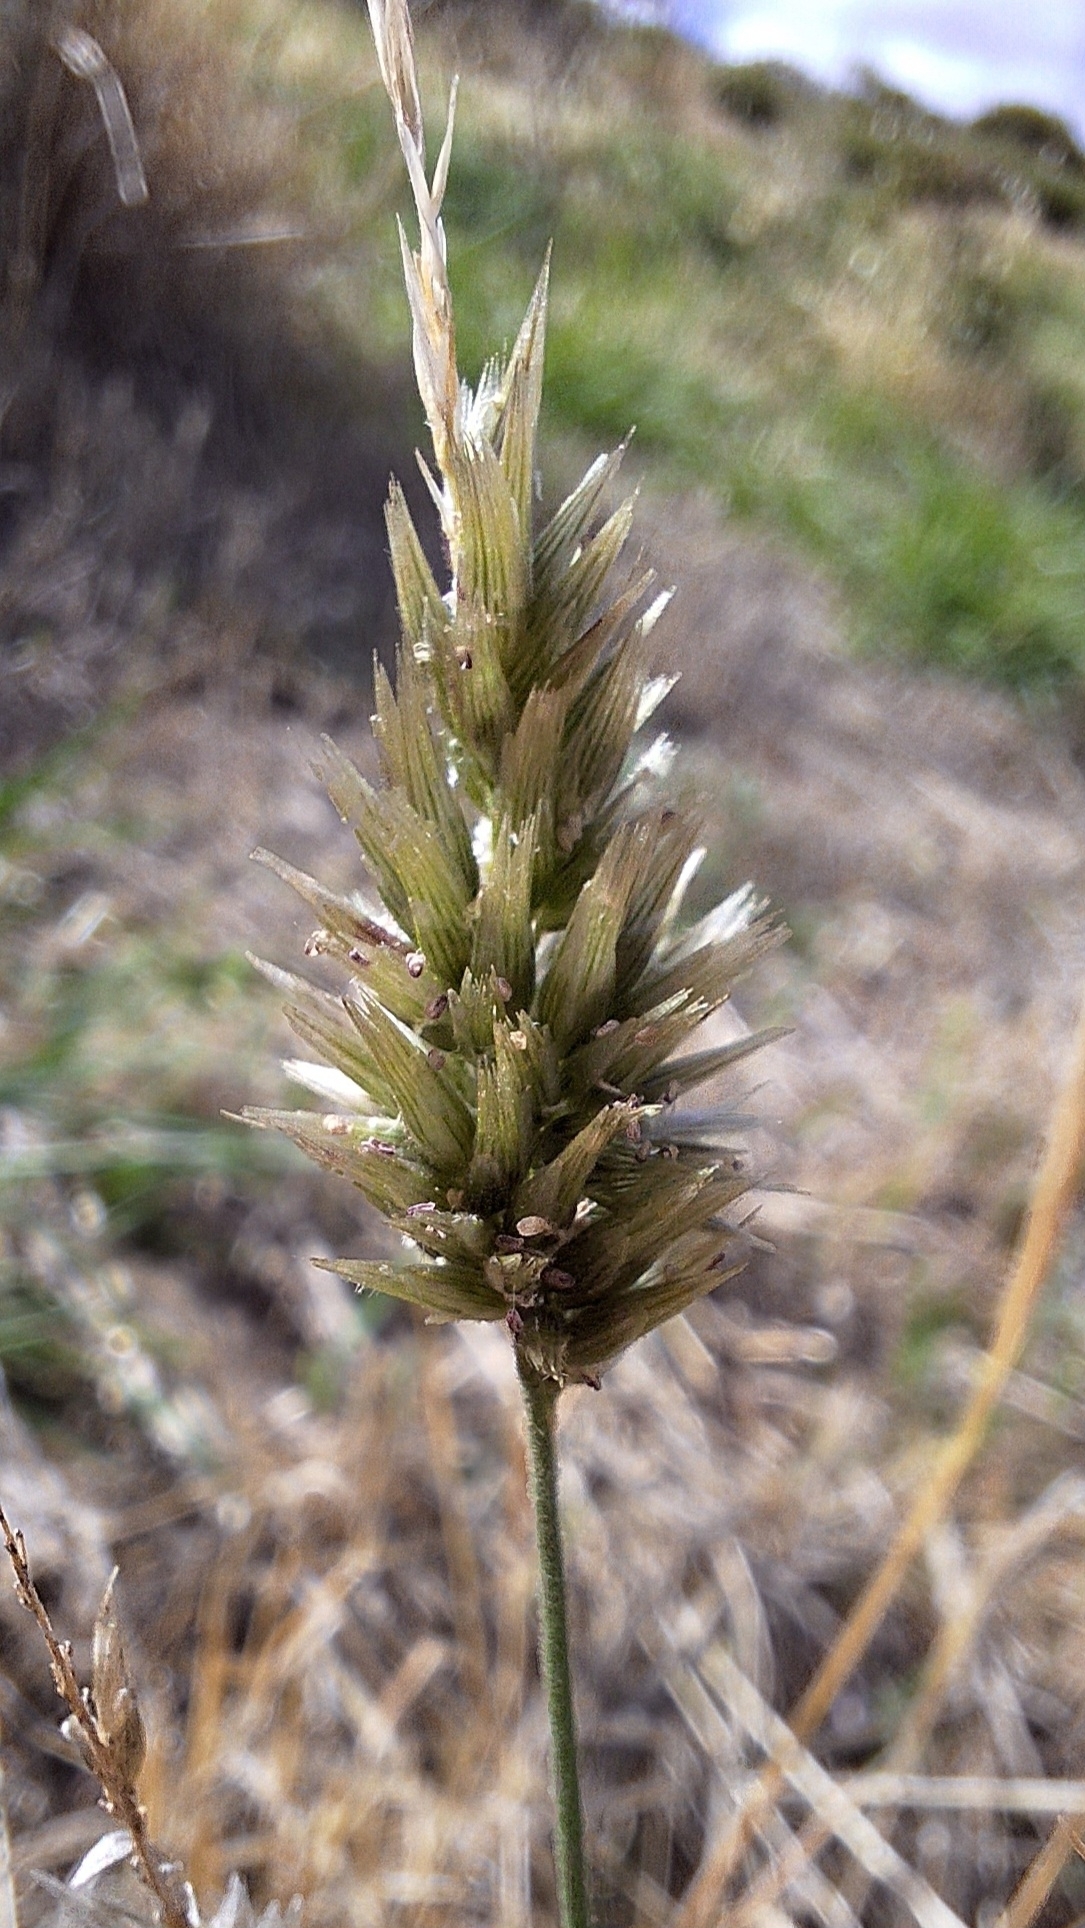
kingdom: Plantae
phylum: Tracheophyta
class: Liliopsida
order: Poales
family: Poaceae
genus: Enneapogon
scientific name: Enneapogon nigricans
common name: Pappus grass
